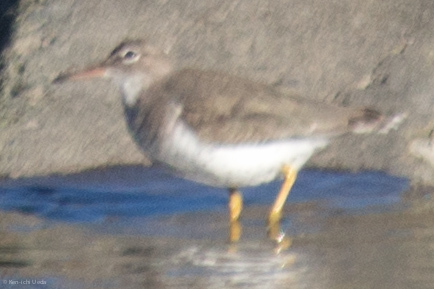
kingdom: Animalia
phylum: Chordata
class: Aves
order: Charadriiformes
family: Scolopacidae
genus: Actitis
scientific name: Actitis macularius
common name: Spotted sandpiper
